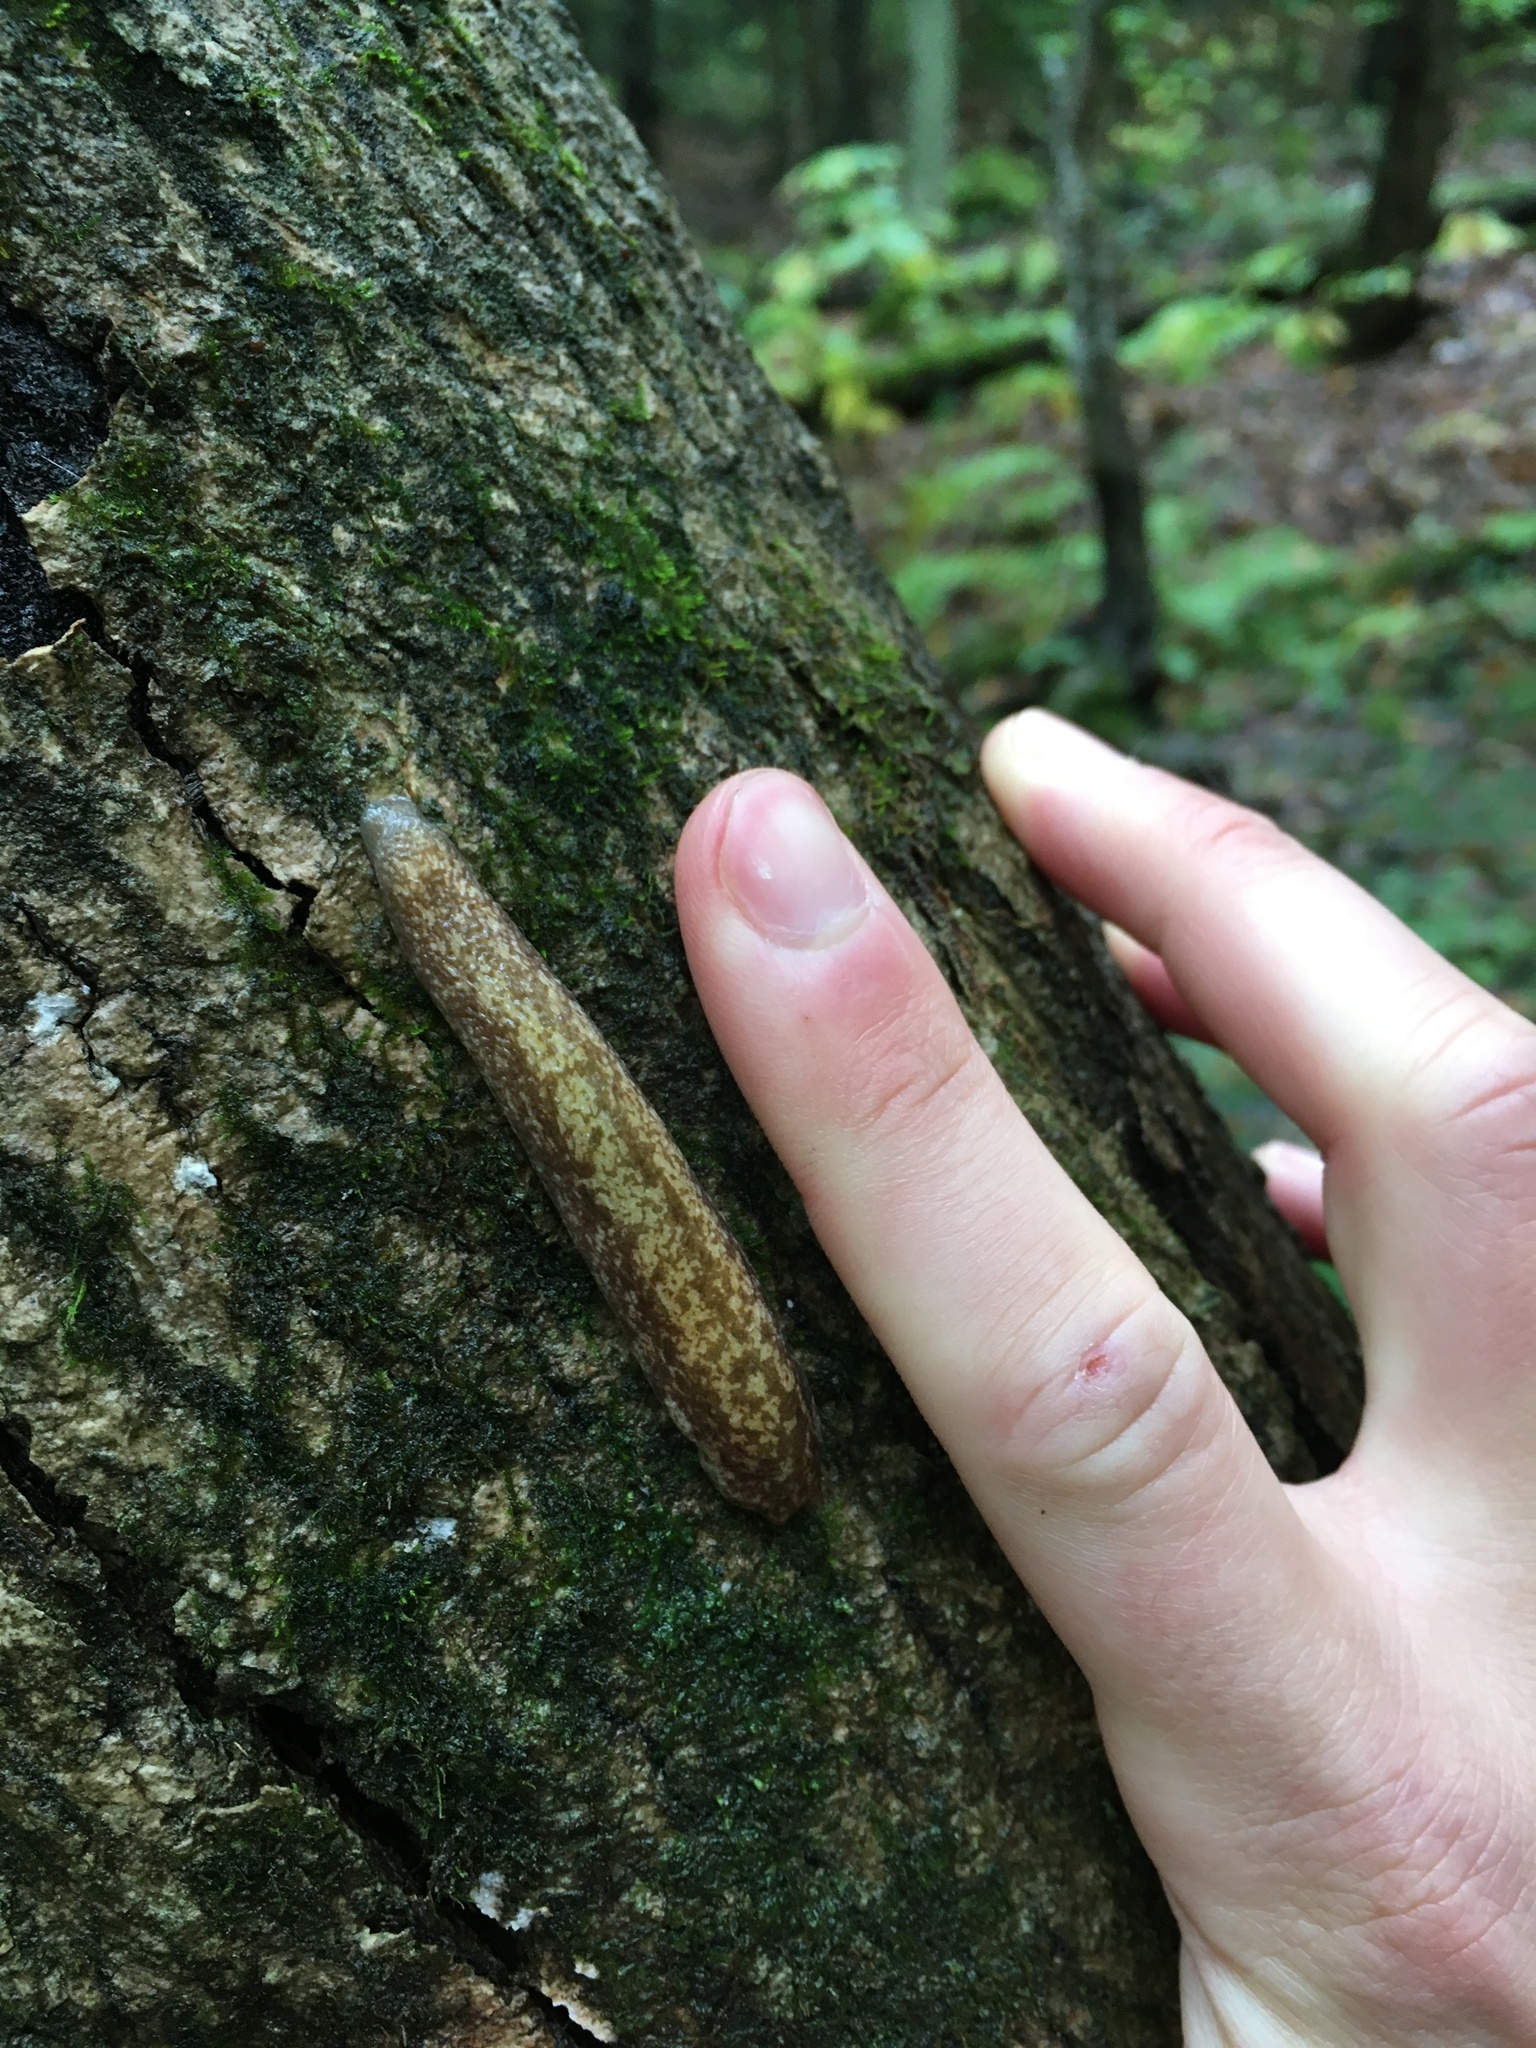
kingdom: Animalia
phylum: Mollusca
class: Gastropoda
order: Stylommatophora
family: Philomycidae
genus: Philomycus
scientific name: Philomycus flexuolaris
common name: Winding mantleslug
